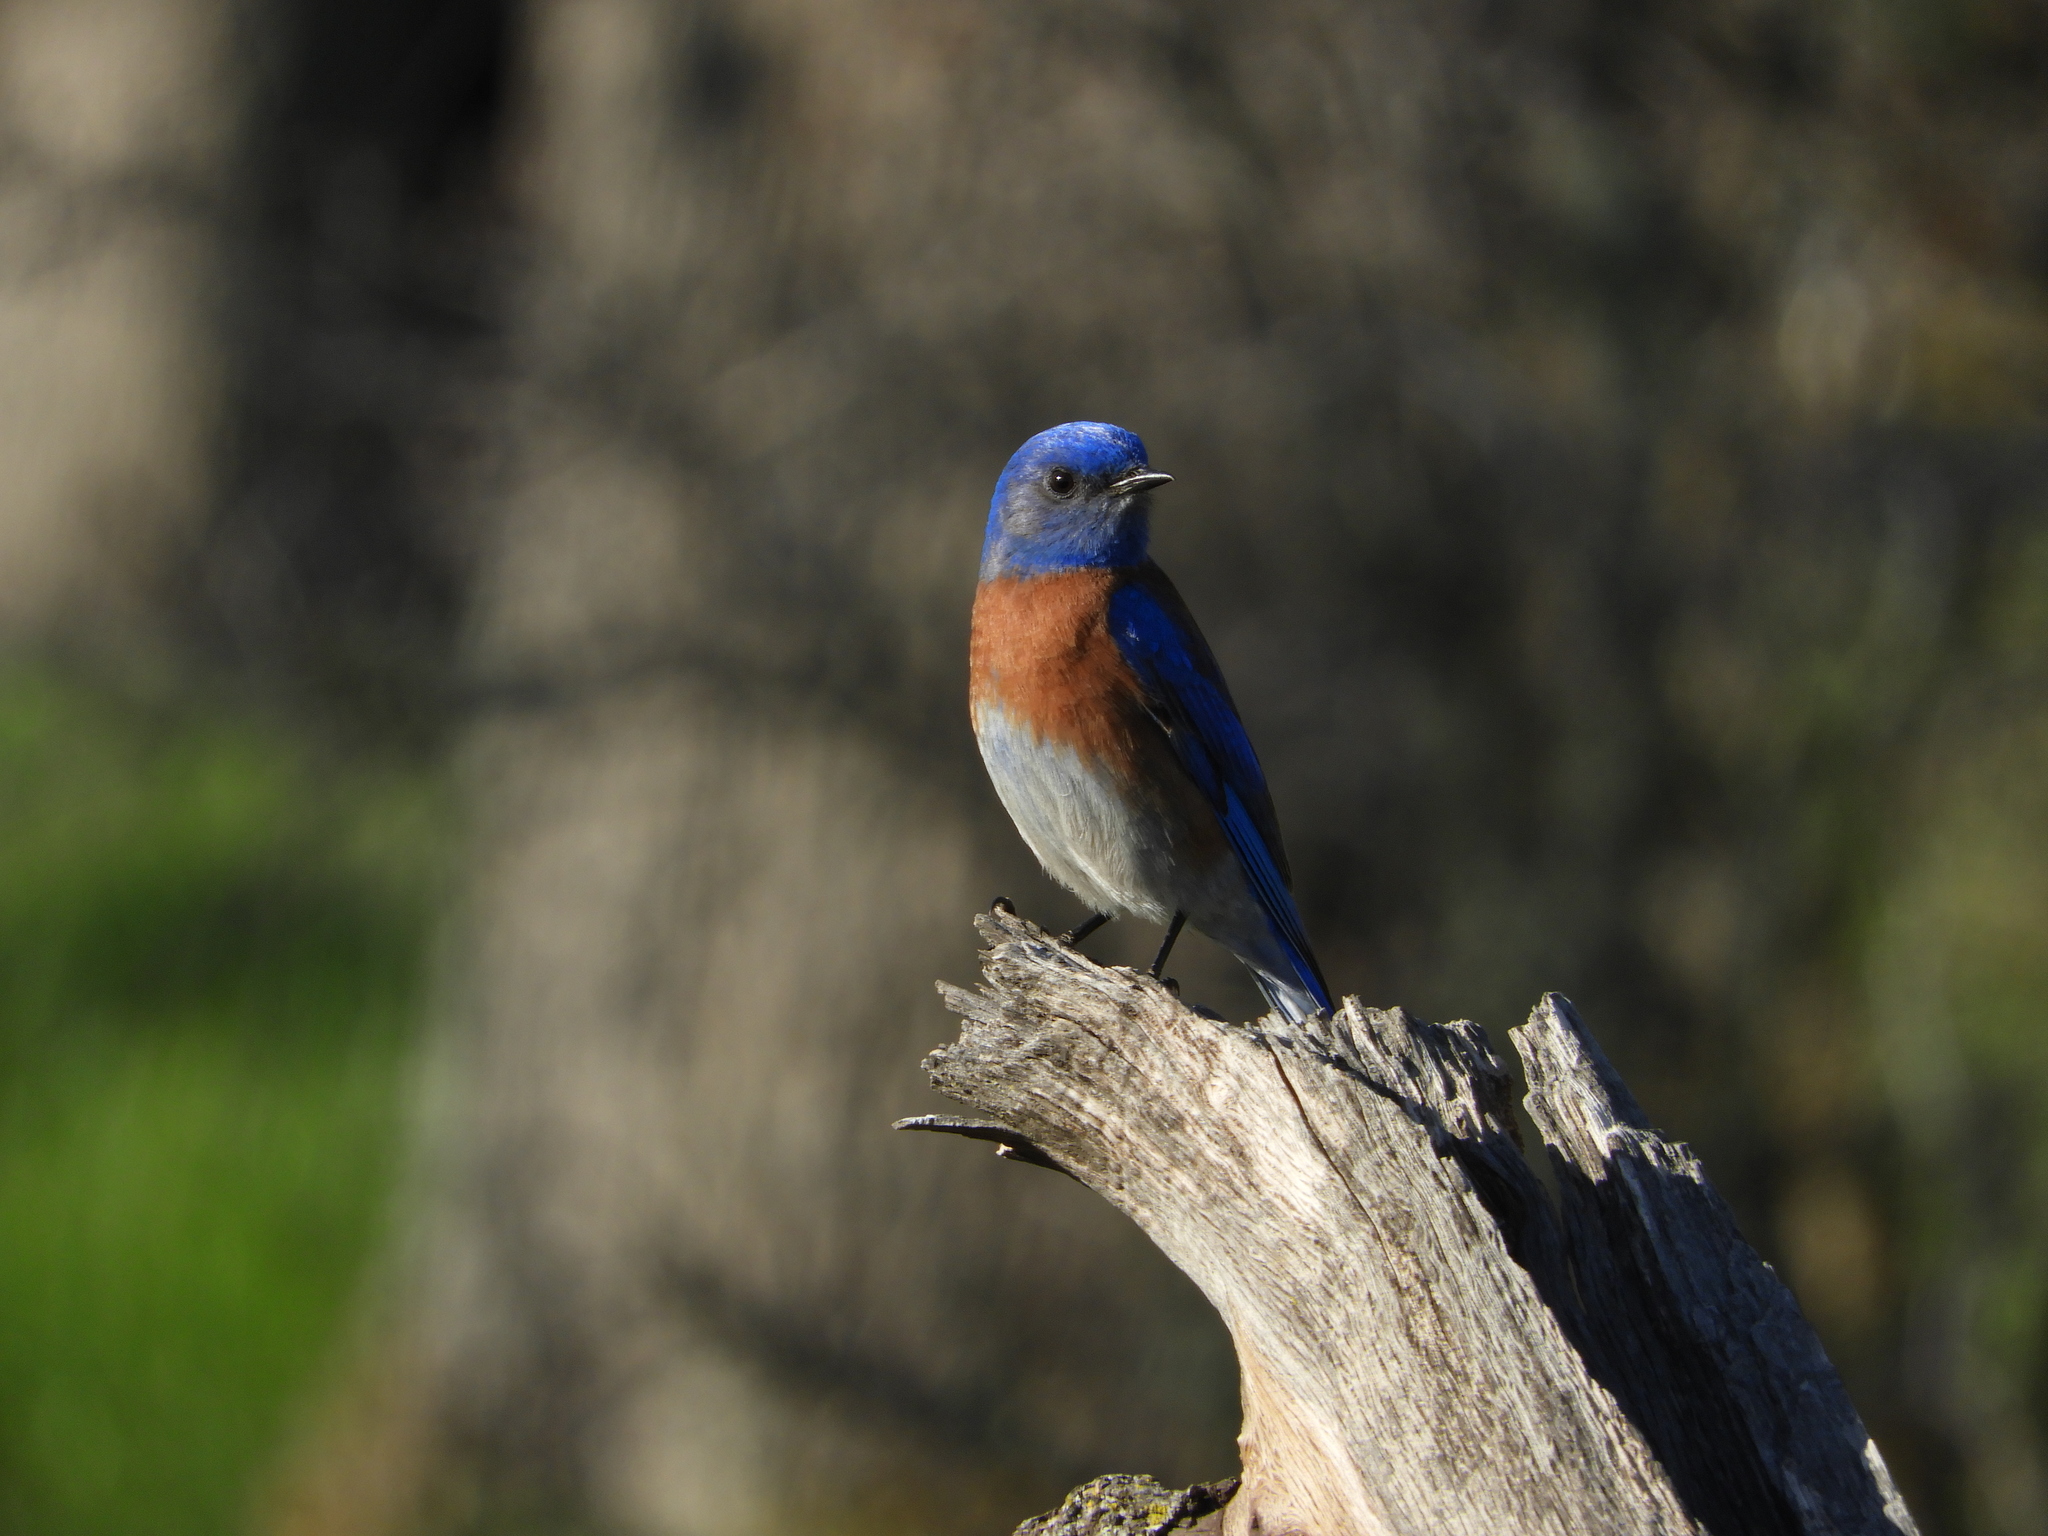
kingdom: Animalia
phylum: Chordata
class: Aves
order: Passeriformes
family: Turdidae
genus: Sialia
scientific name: Sialia mexicana
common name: Western bluebird
